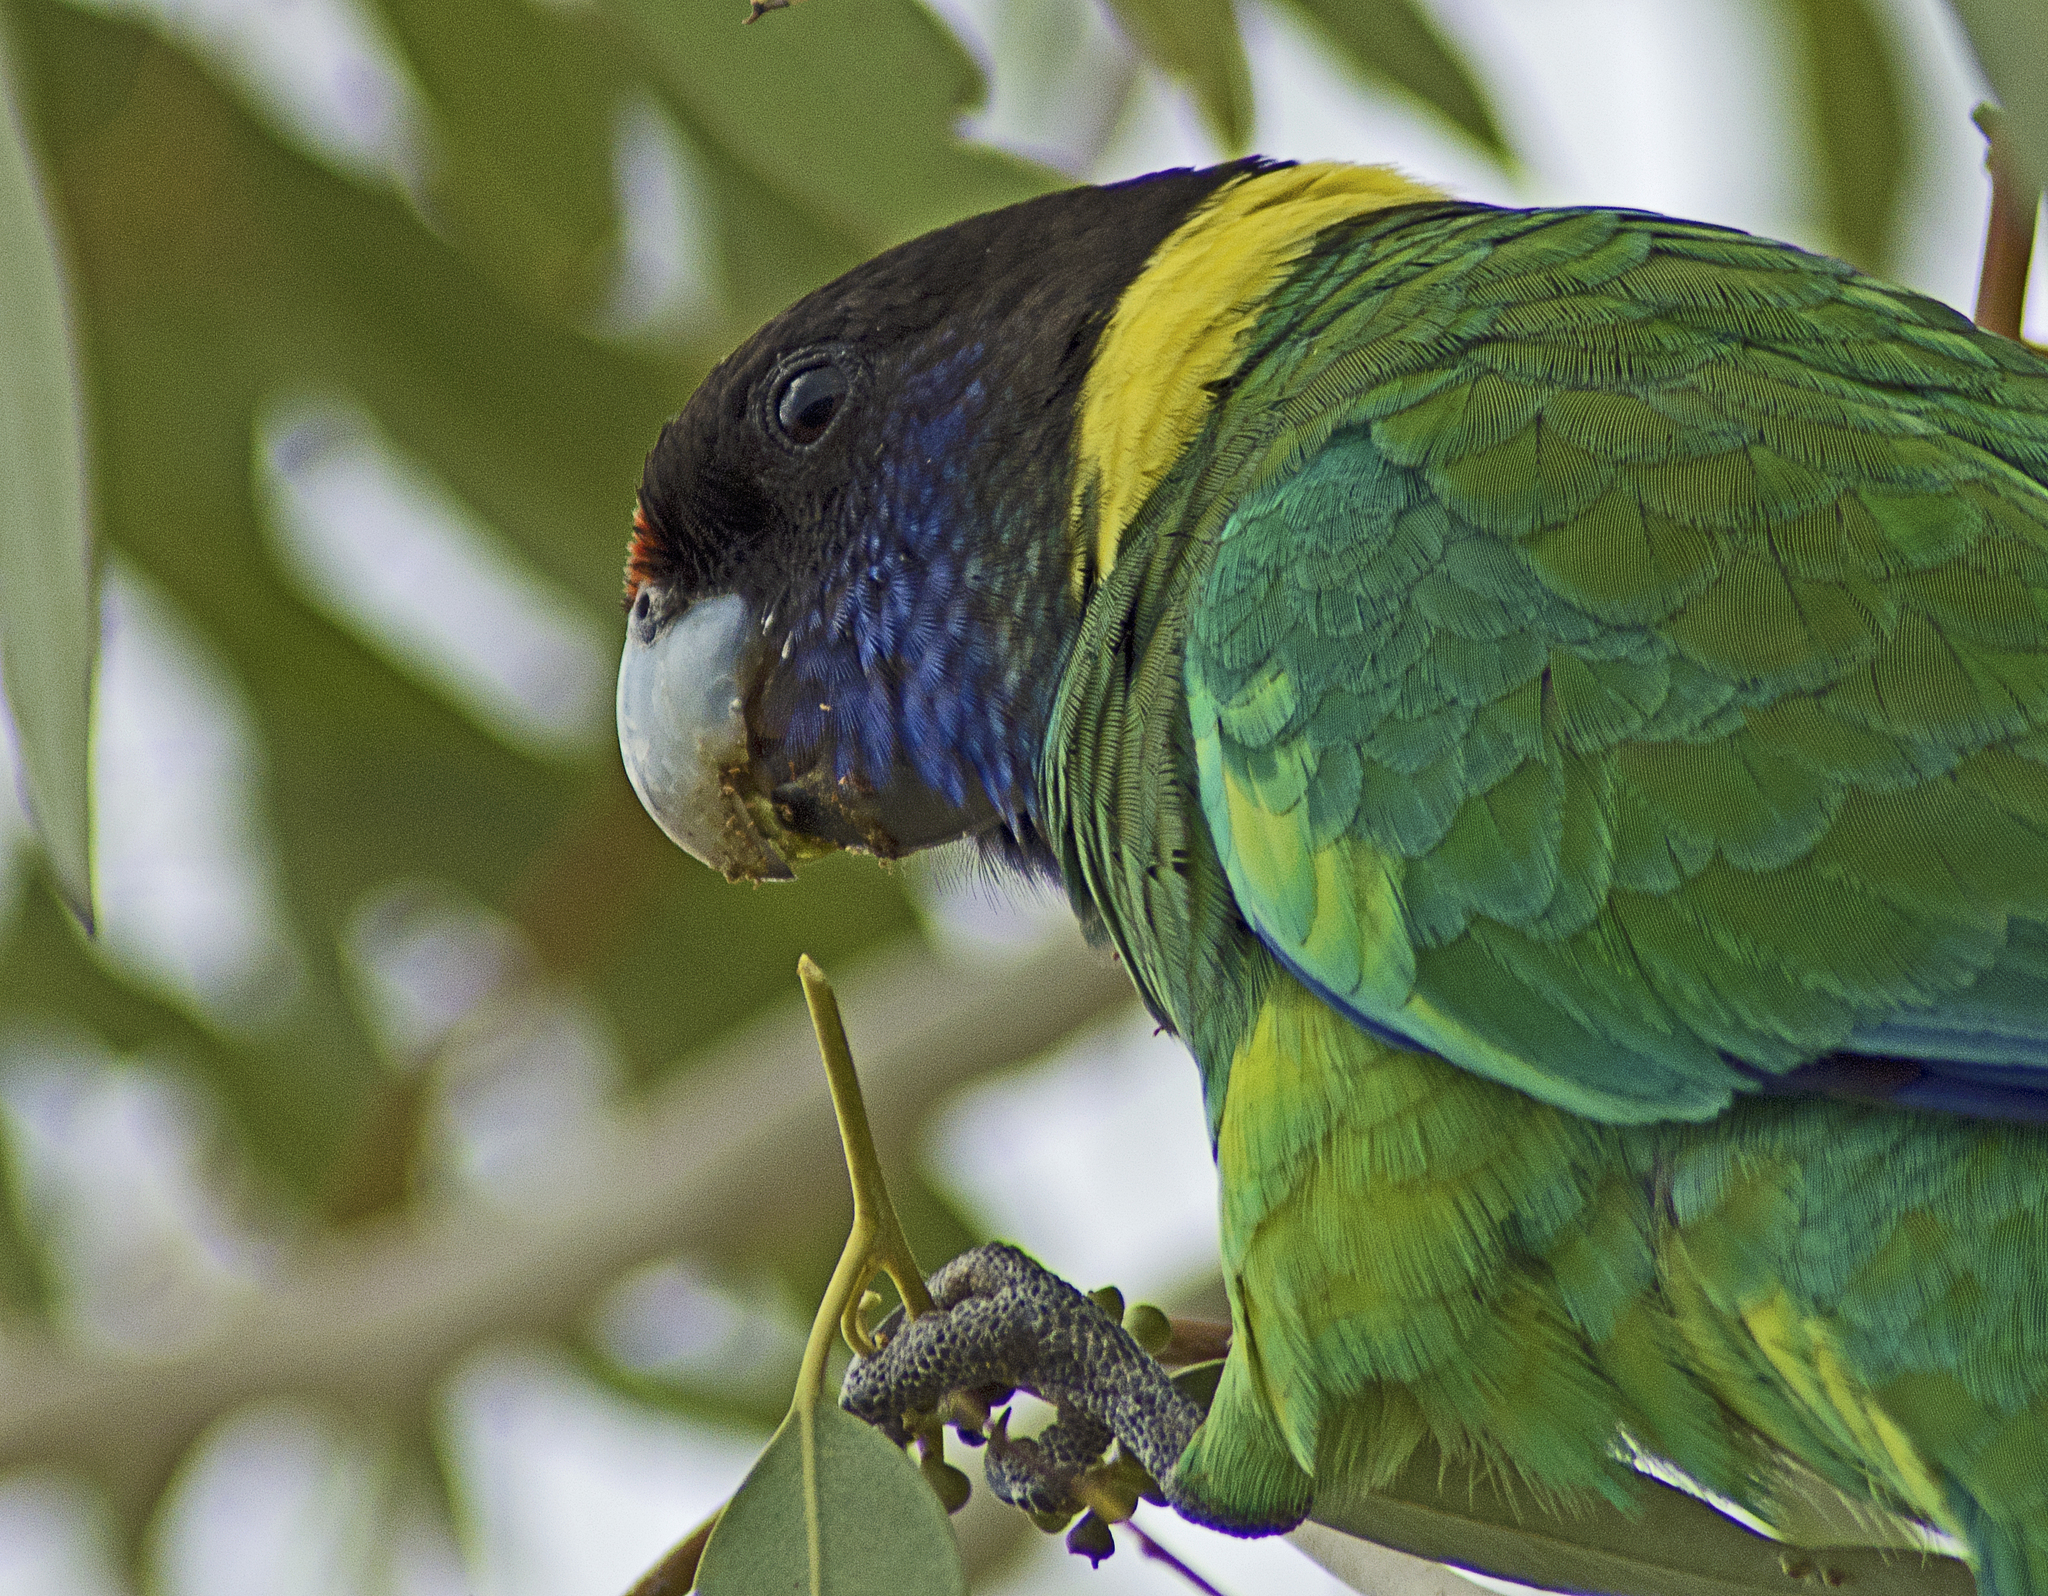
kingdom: Animalia
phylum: Chordata
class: Aves
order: Psittaciformes
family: Psittacidae
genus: Barnardius
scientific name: Barnardius zonarius
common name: Australian ringneck
